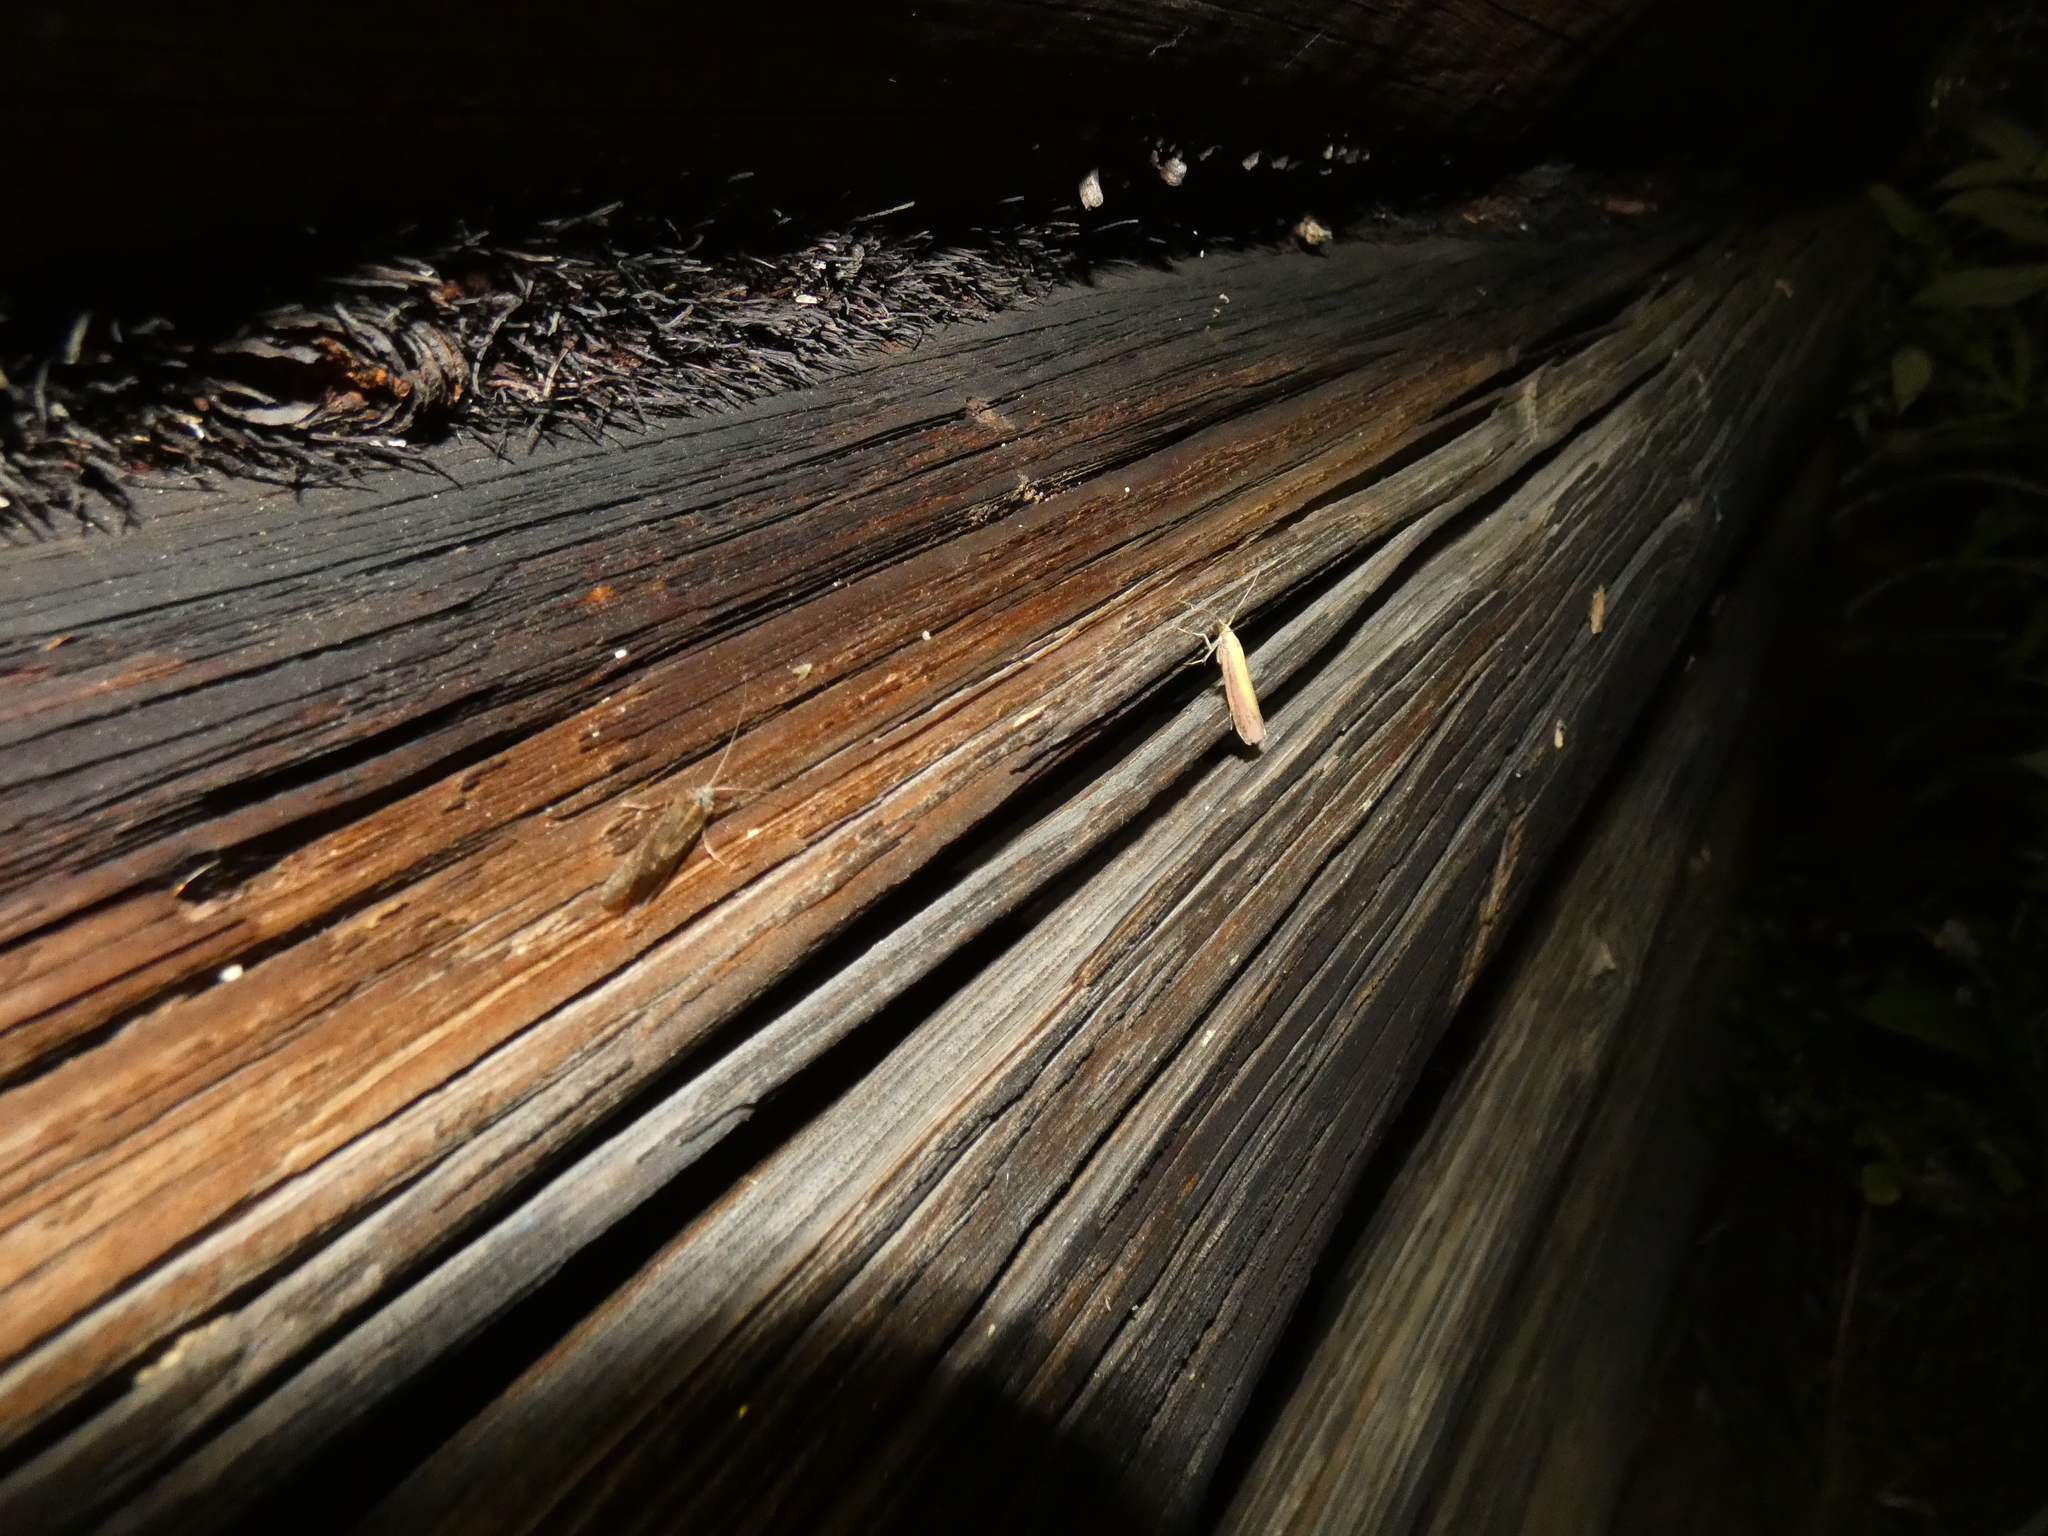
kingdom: Animalia
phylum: Arthropoda
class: Insecta
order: Lepidoptera
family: Pyralidae
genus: Oncocera
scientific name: Oncocera semirubella
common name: Rosy-striped knot-horn
